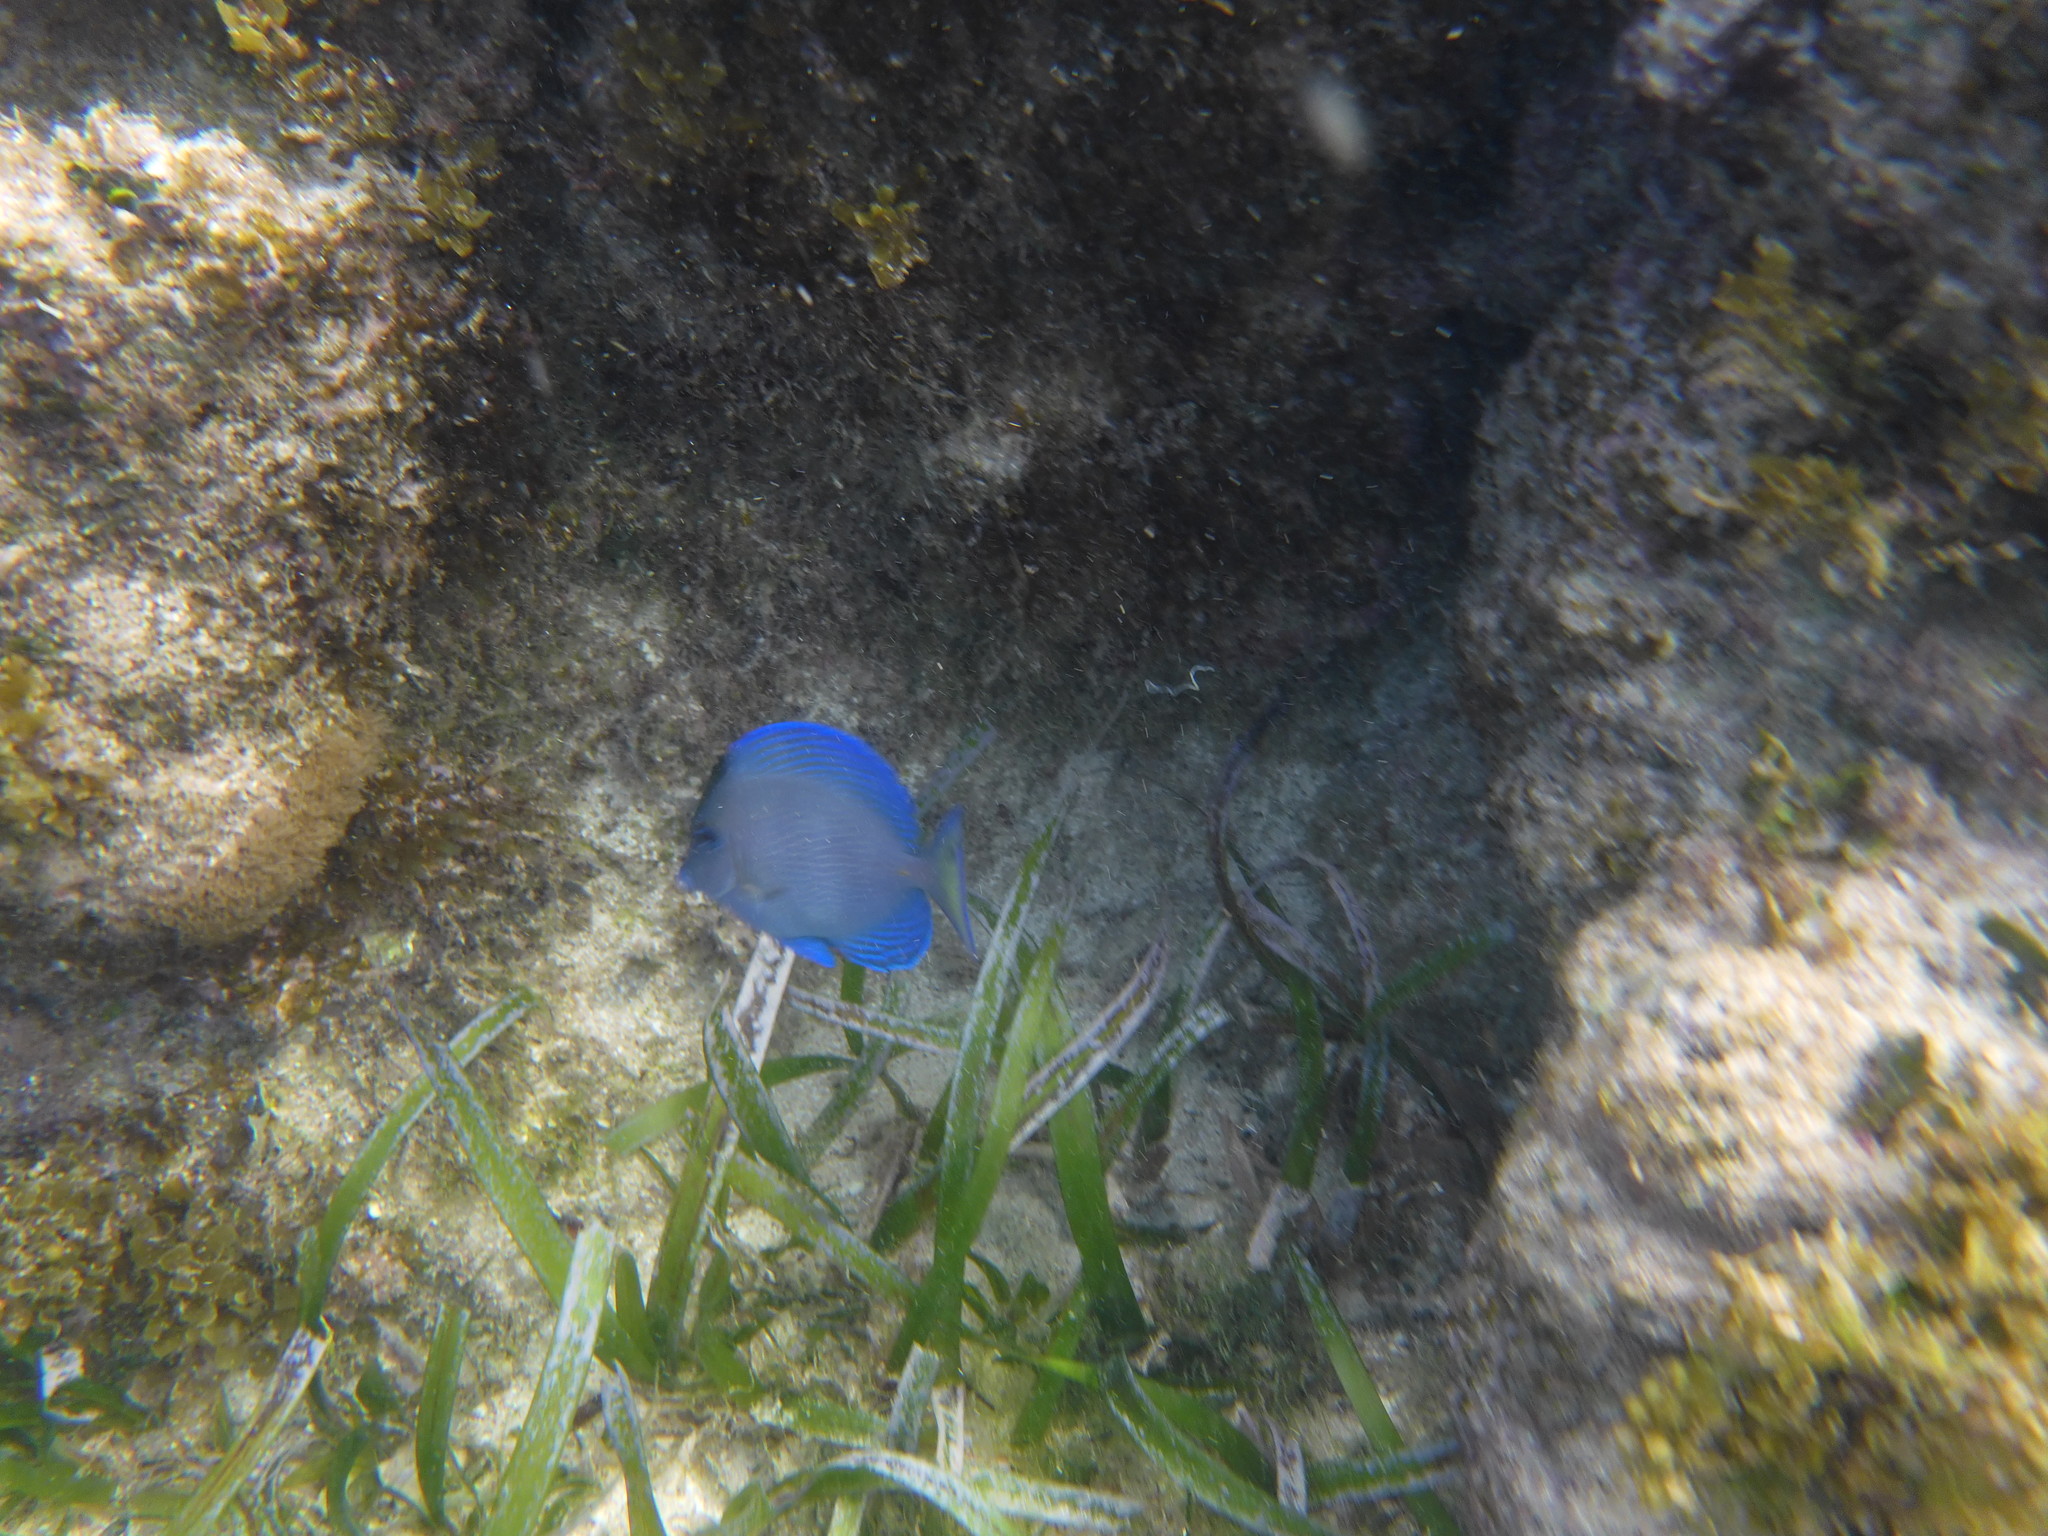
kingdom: Animalia
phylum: Chordata
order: Perciformes
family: Acanthuridae
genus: Acanthurus
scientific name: Acanthurus coeruleus
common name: Blue tang
